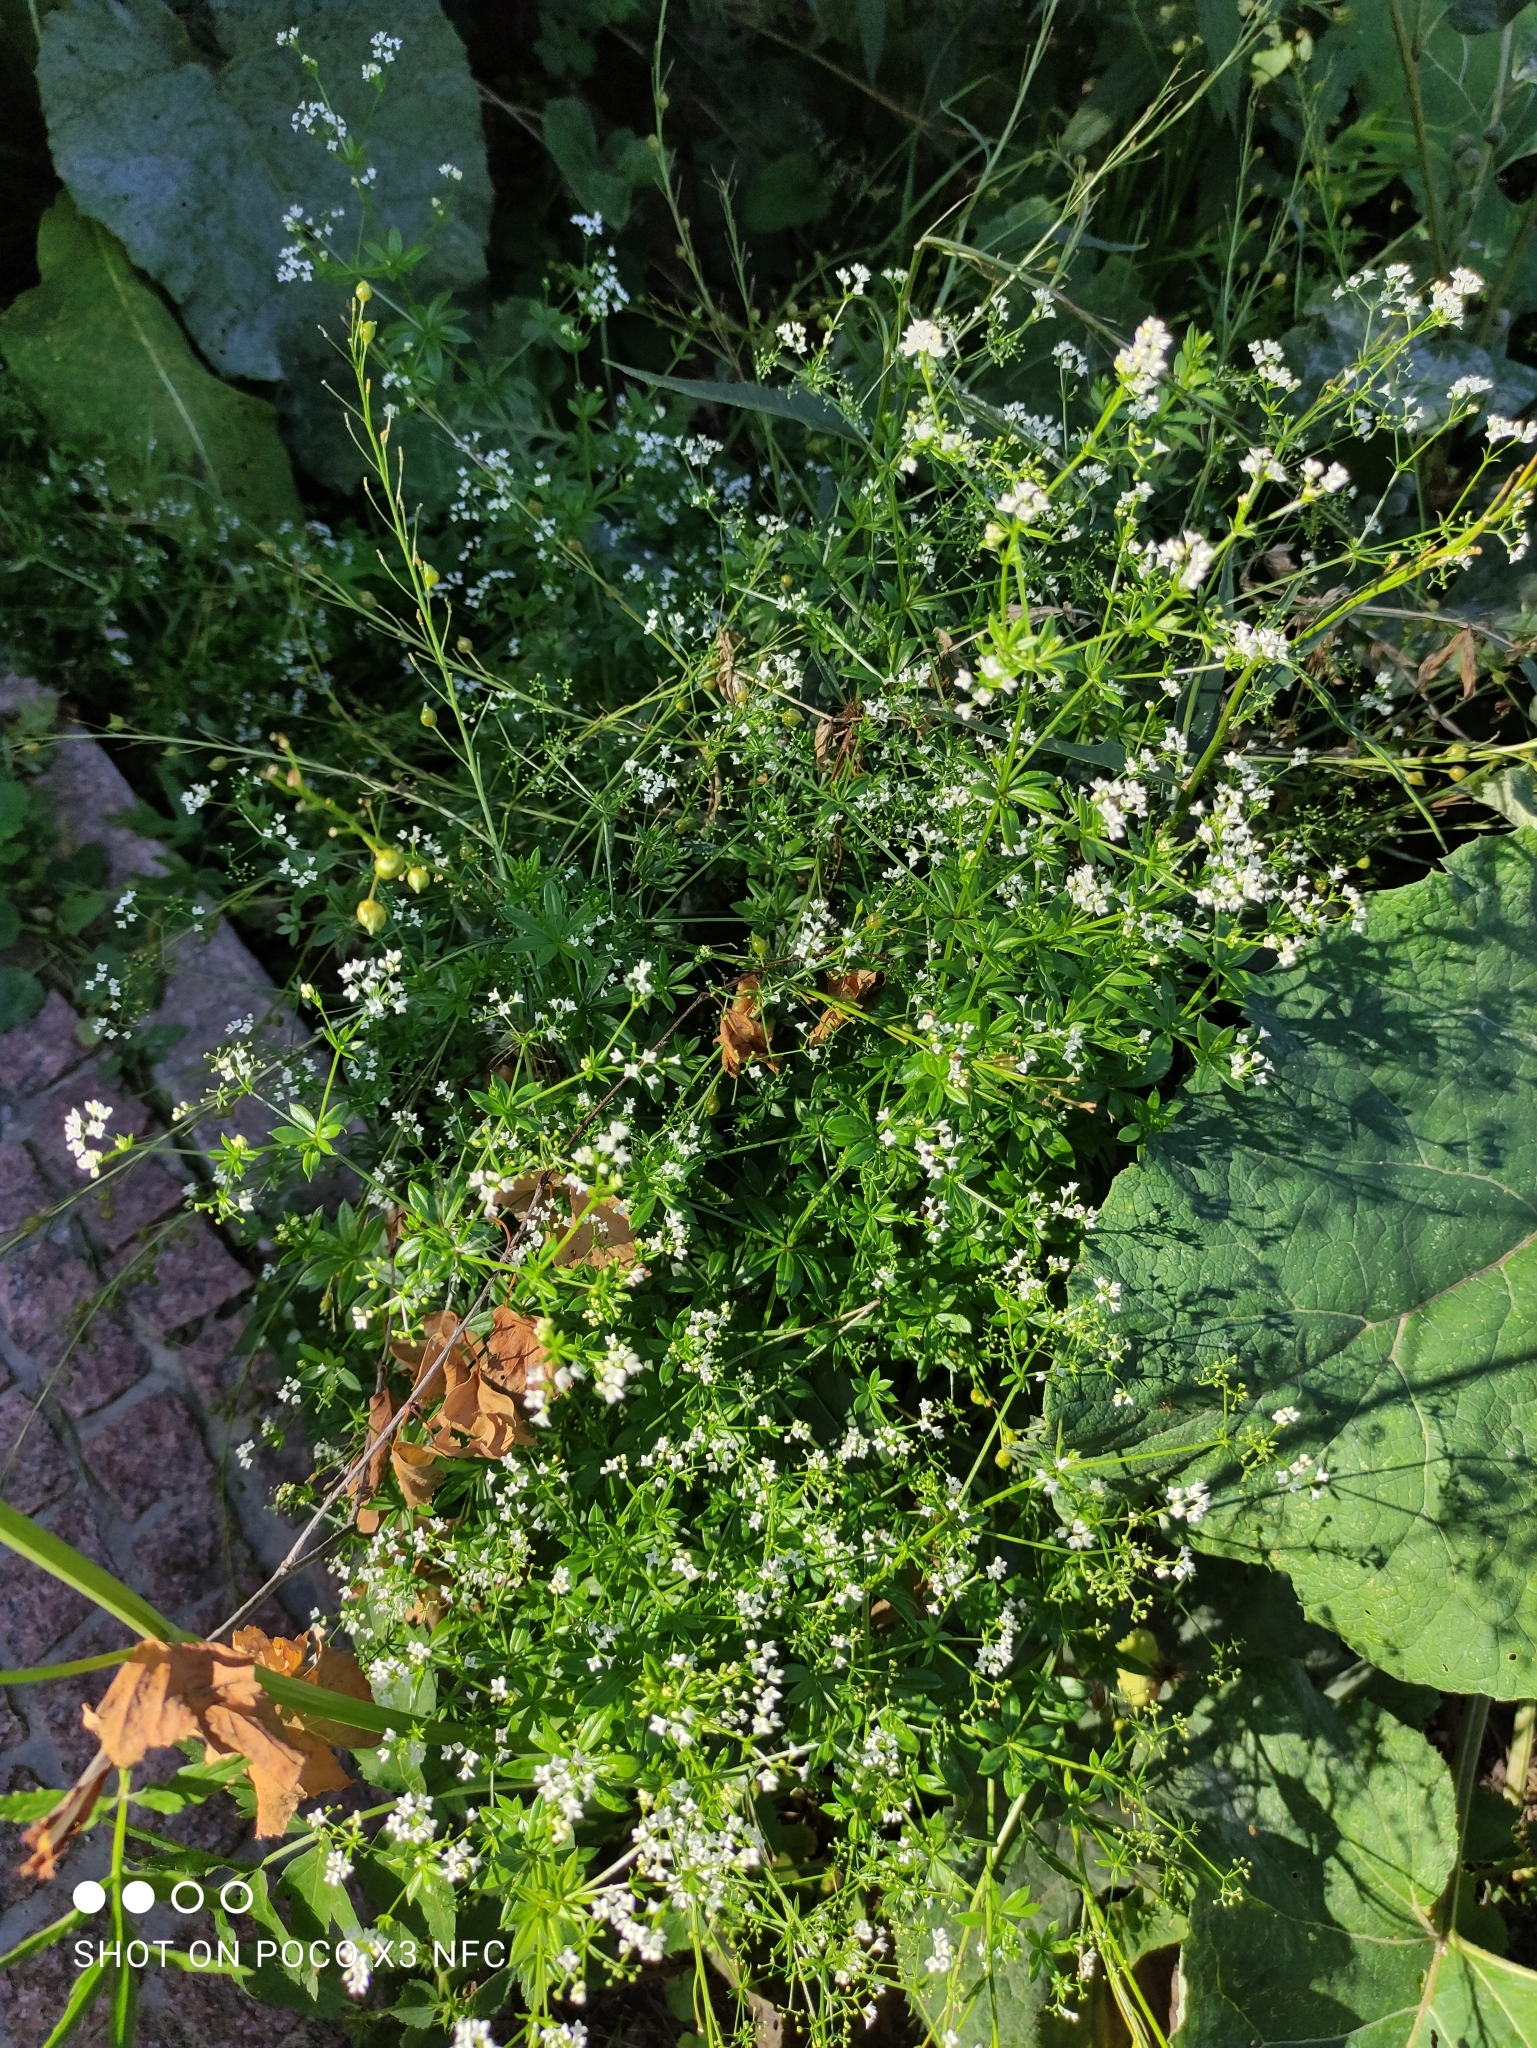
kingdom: Plantae
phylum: Tracheophyta
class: Magnoliopsida
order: Gentianales
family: Rubiaceae
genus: Galium
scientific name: Galium rivale
